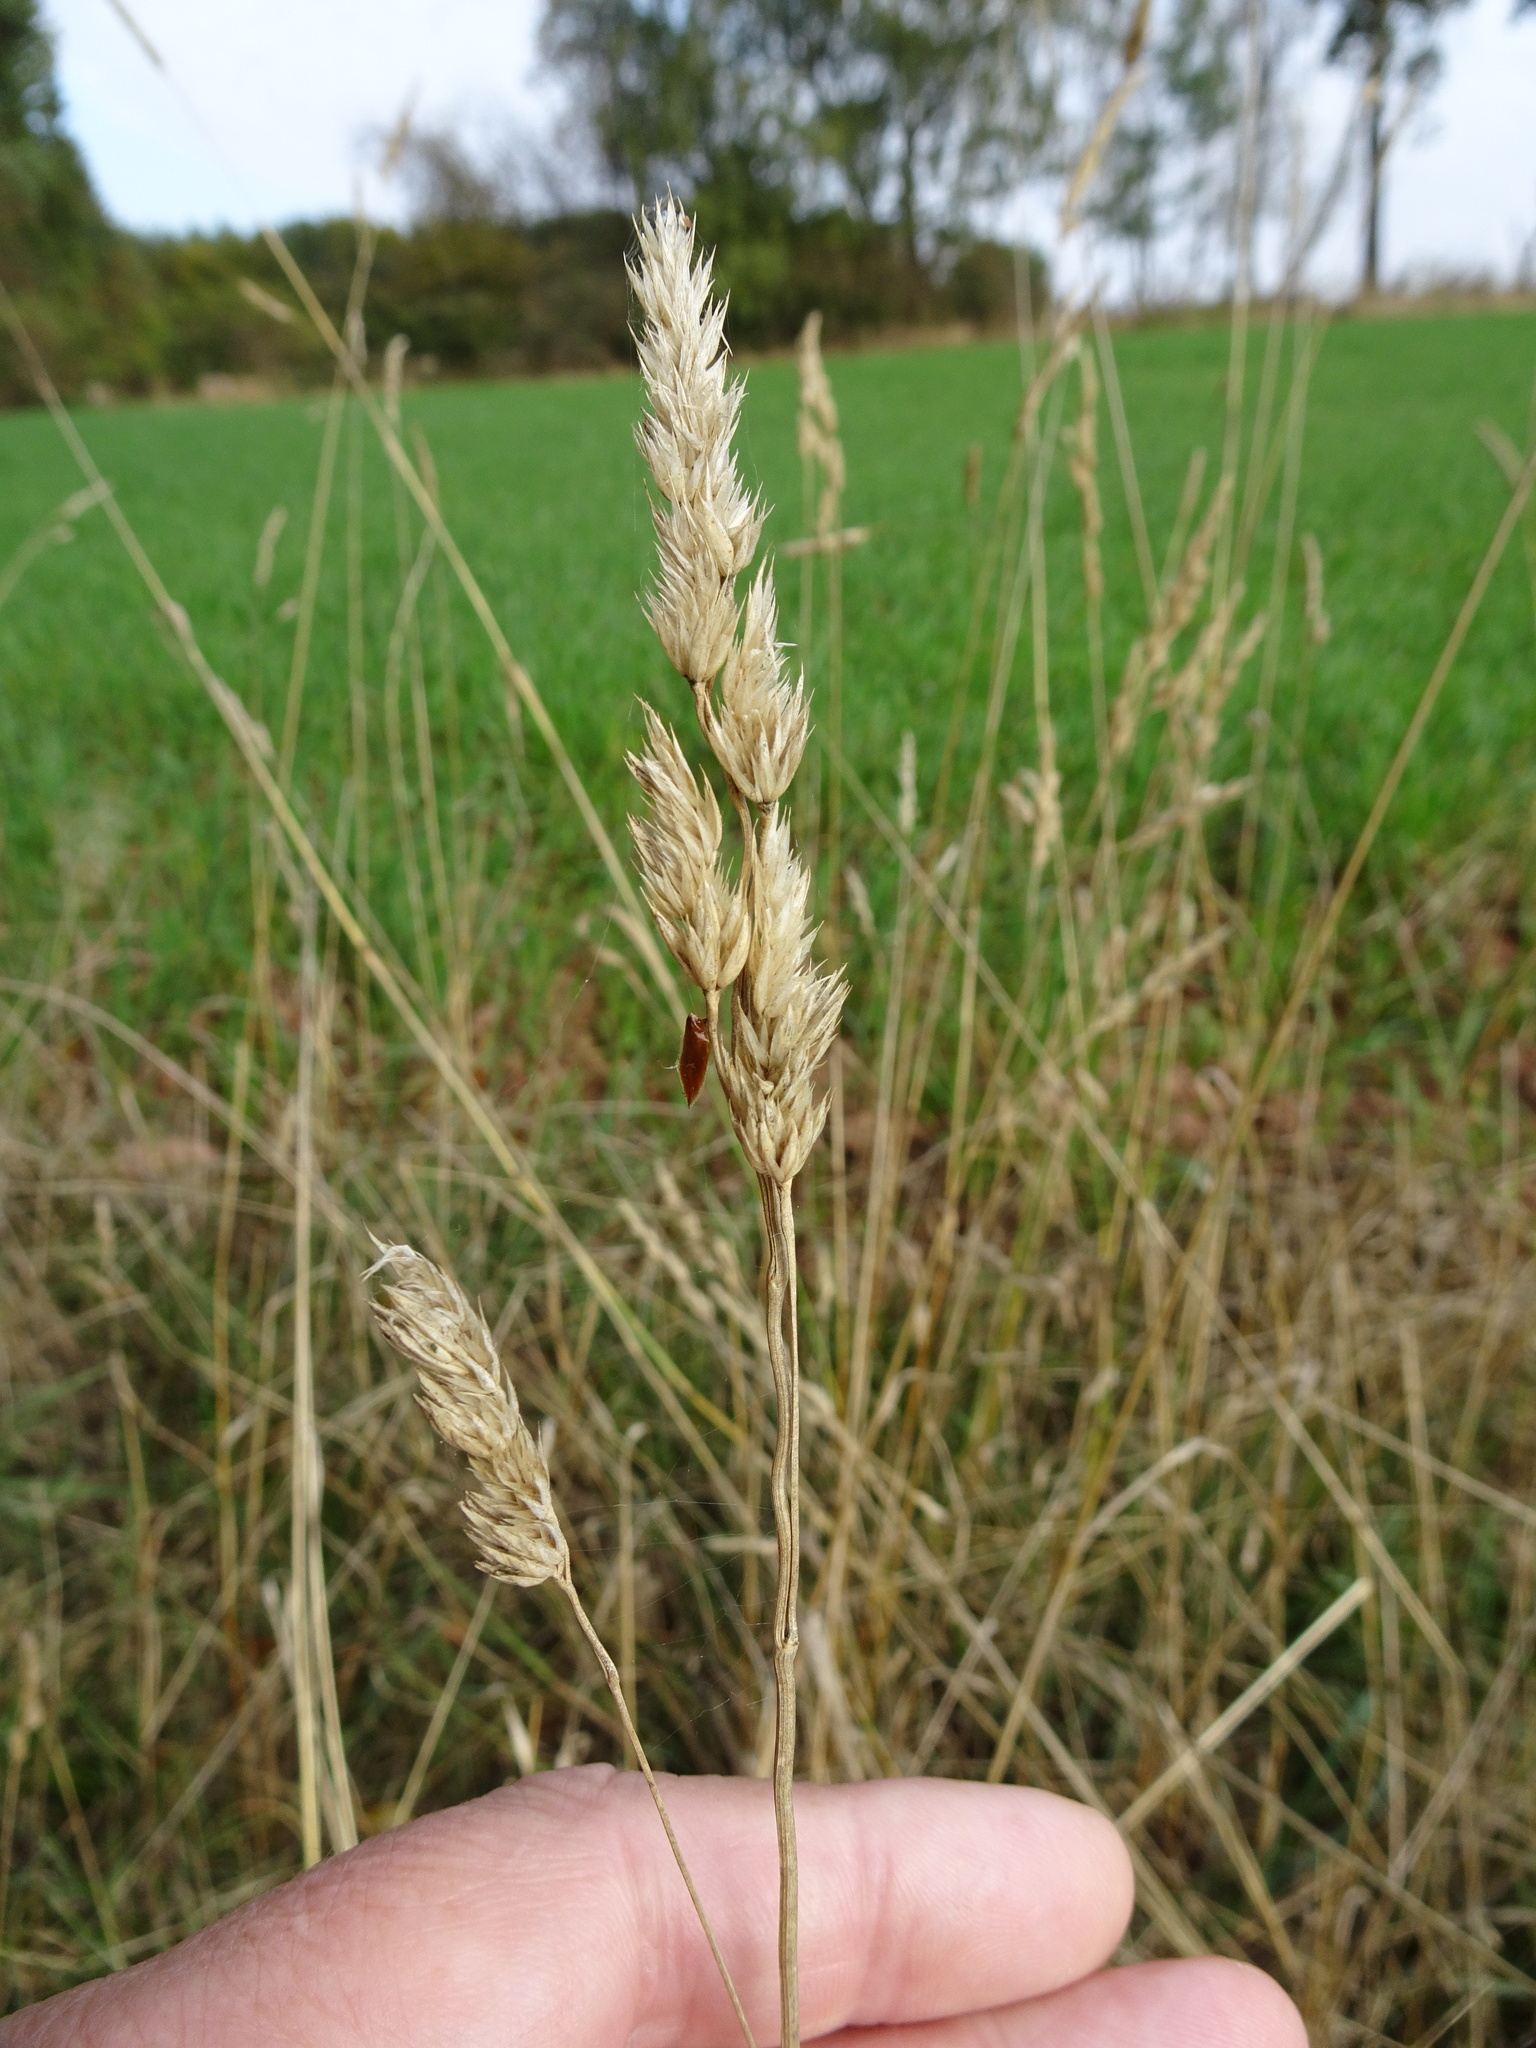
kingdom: Plantae
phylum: Tracheophyta
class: Liliopsida
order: Poales
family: Poaceae
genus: Dactylis
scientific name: Dactylis glomerata
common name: Orchardgrass
